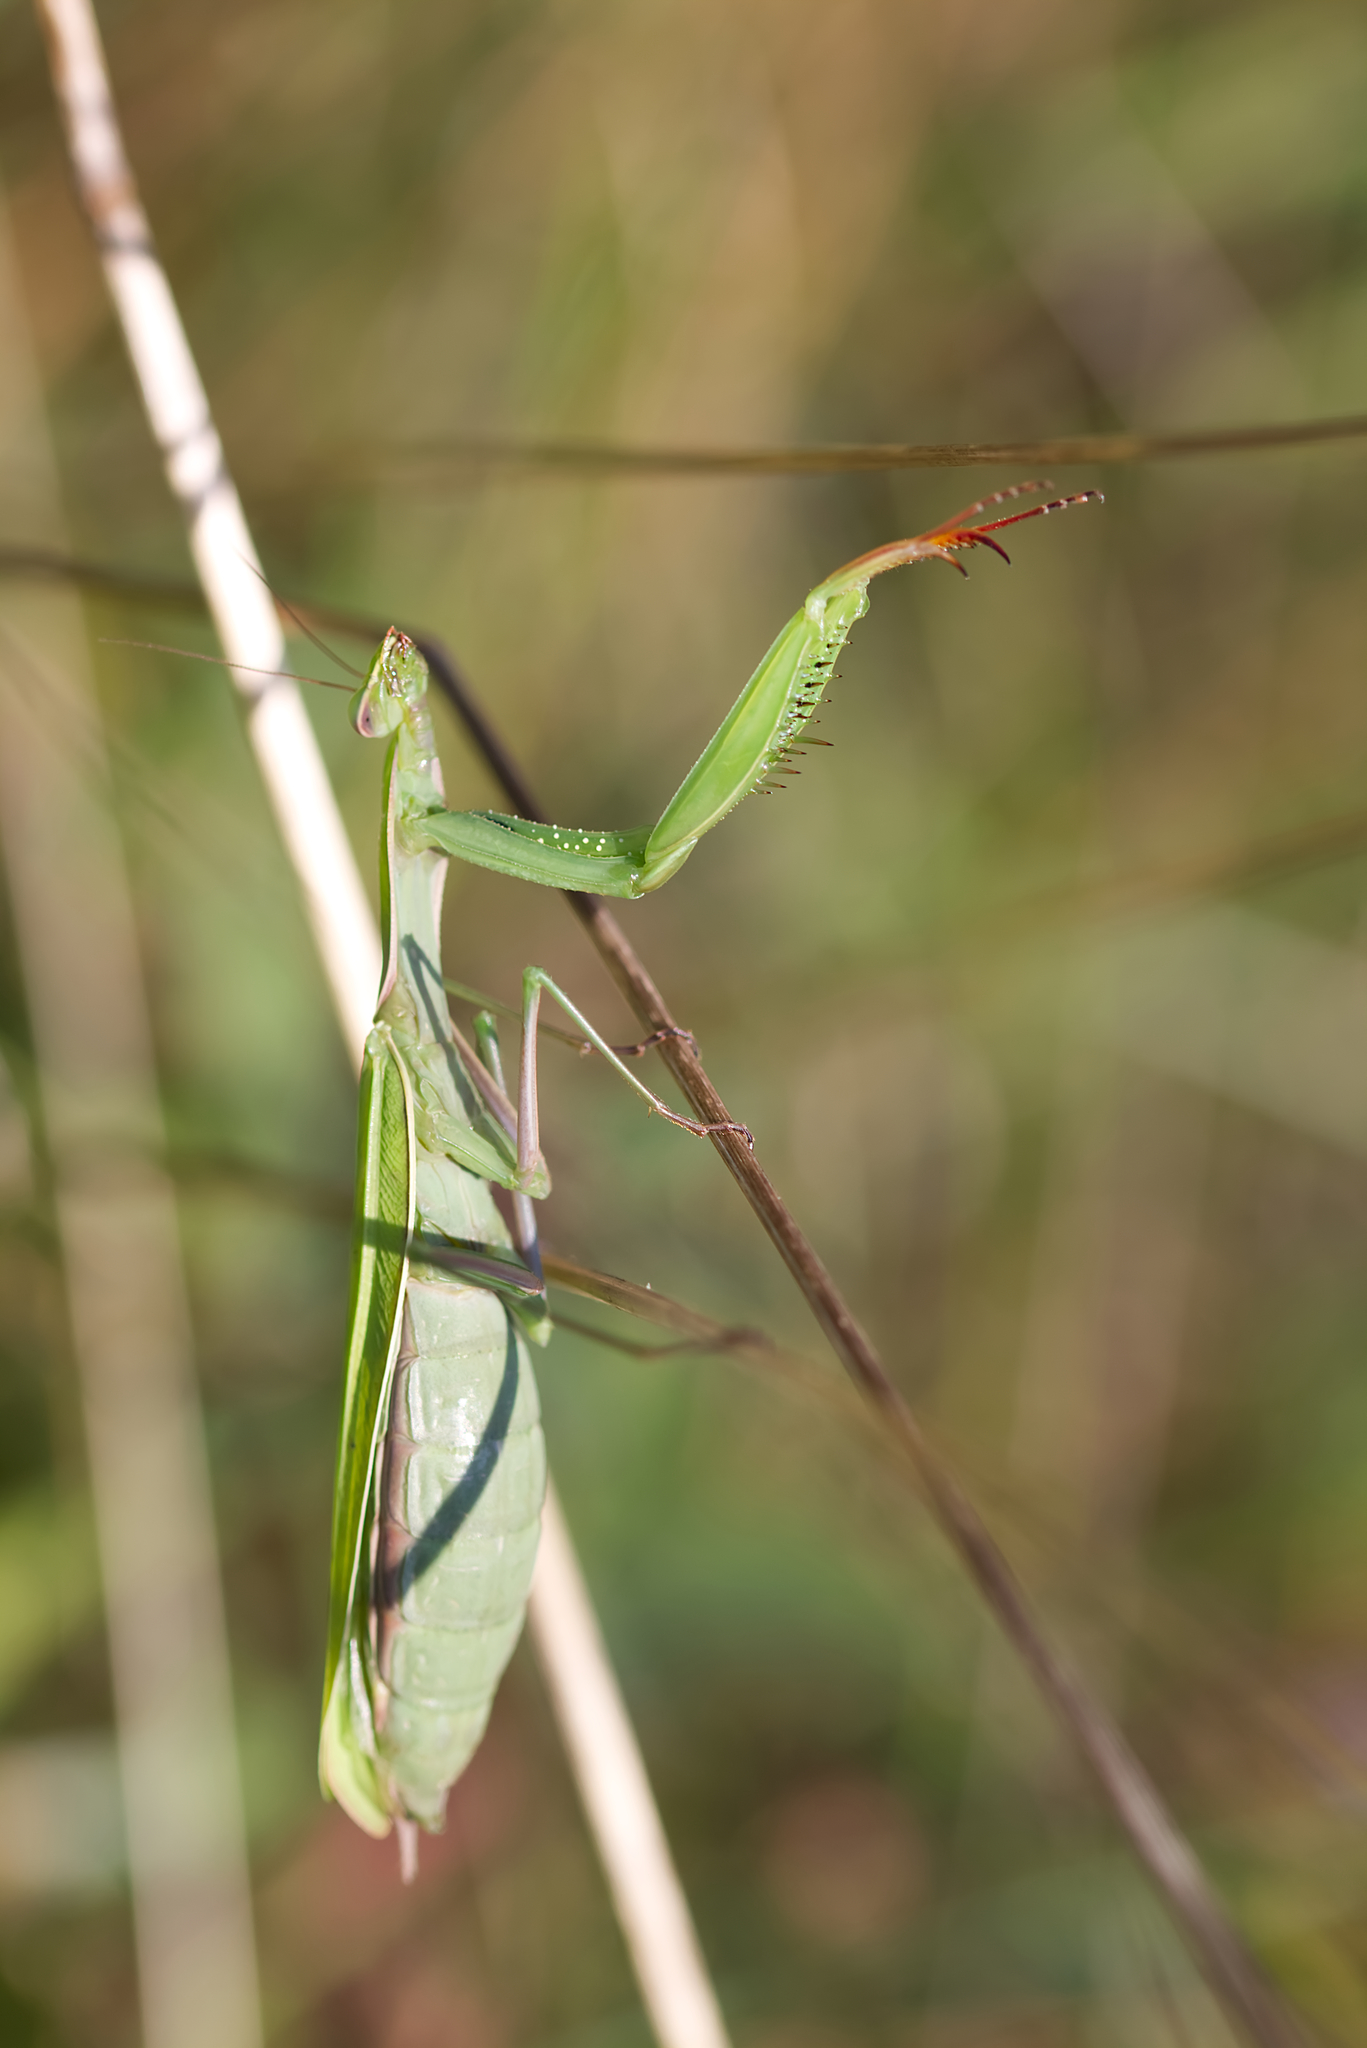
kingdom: Animalia
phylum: Arthropoda
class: Insecta
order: Mantodea
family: Mantidae
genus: Mantis
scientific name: Mantis religiosa
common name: Praying mantis
